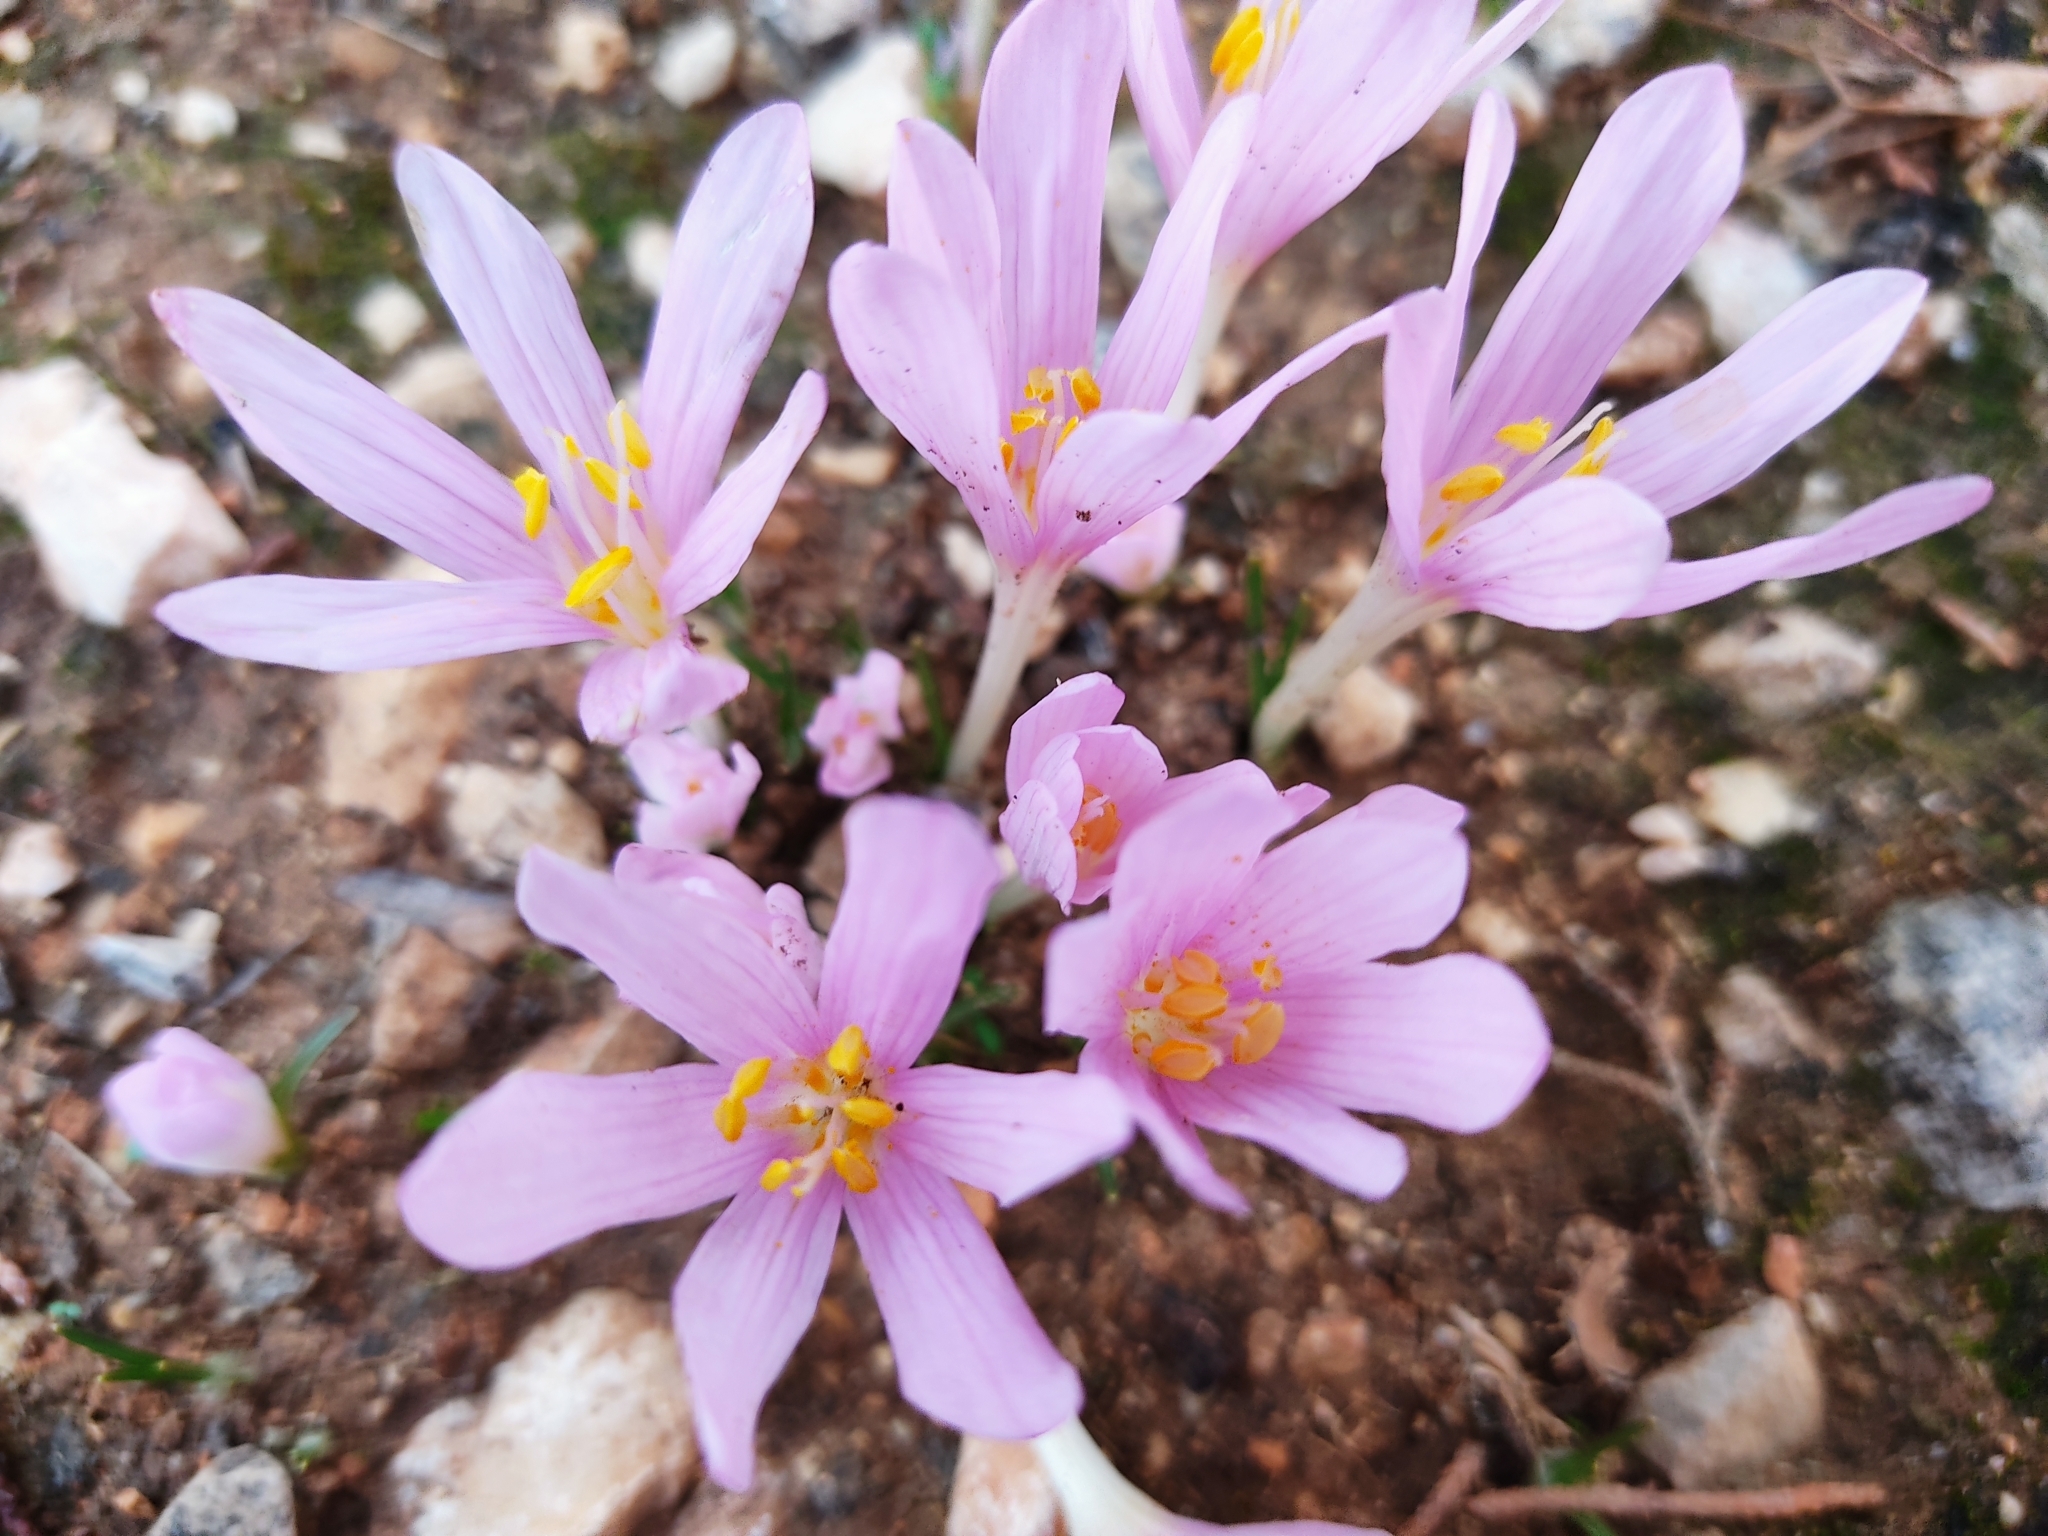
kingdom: Plantae
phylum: Tracheophyta
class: Liliopsida
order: Liliales
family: Colchicaceae
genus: Colchicum
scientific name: Colchicum stevenii
